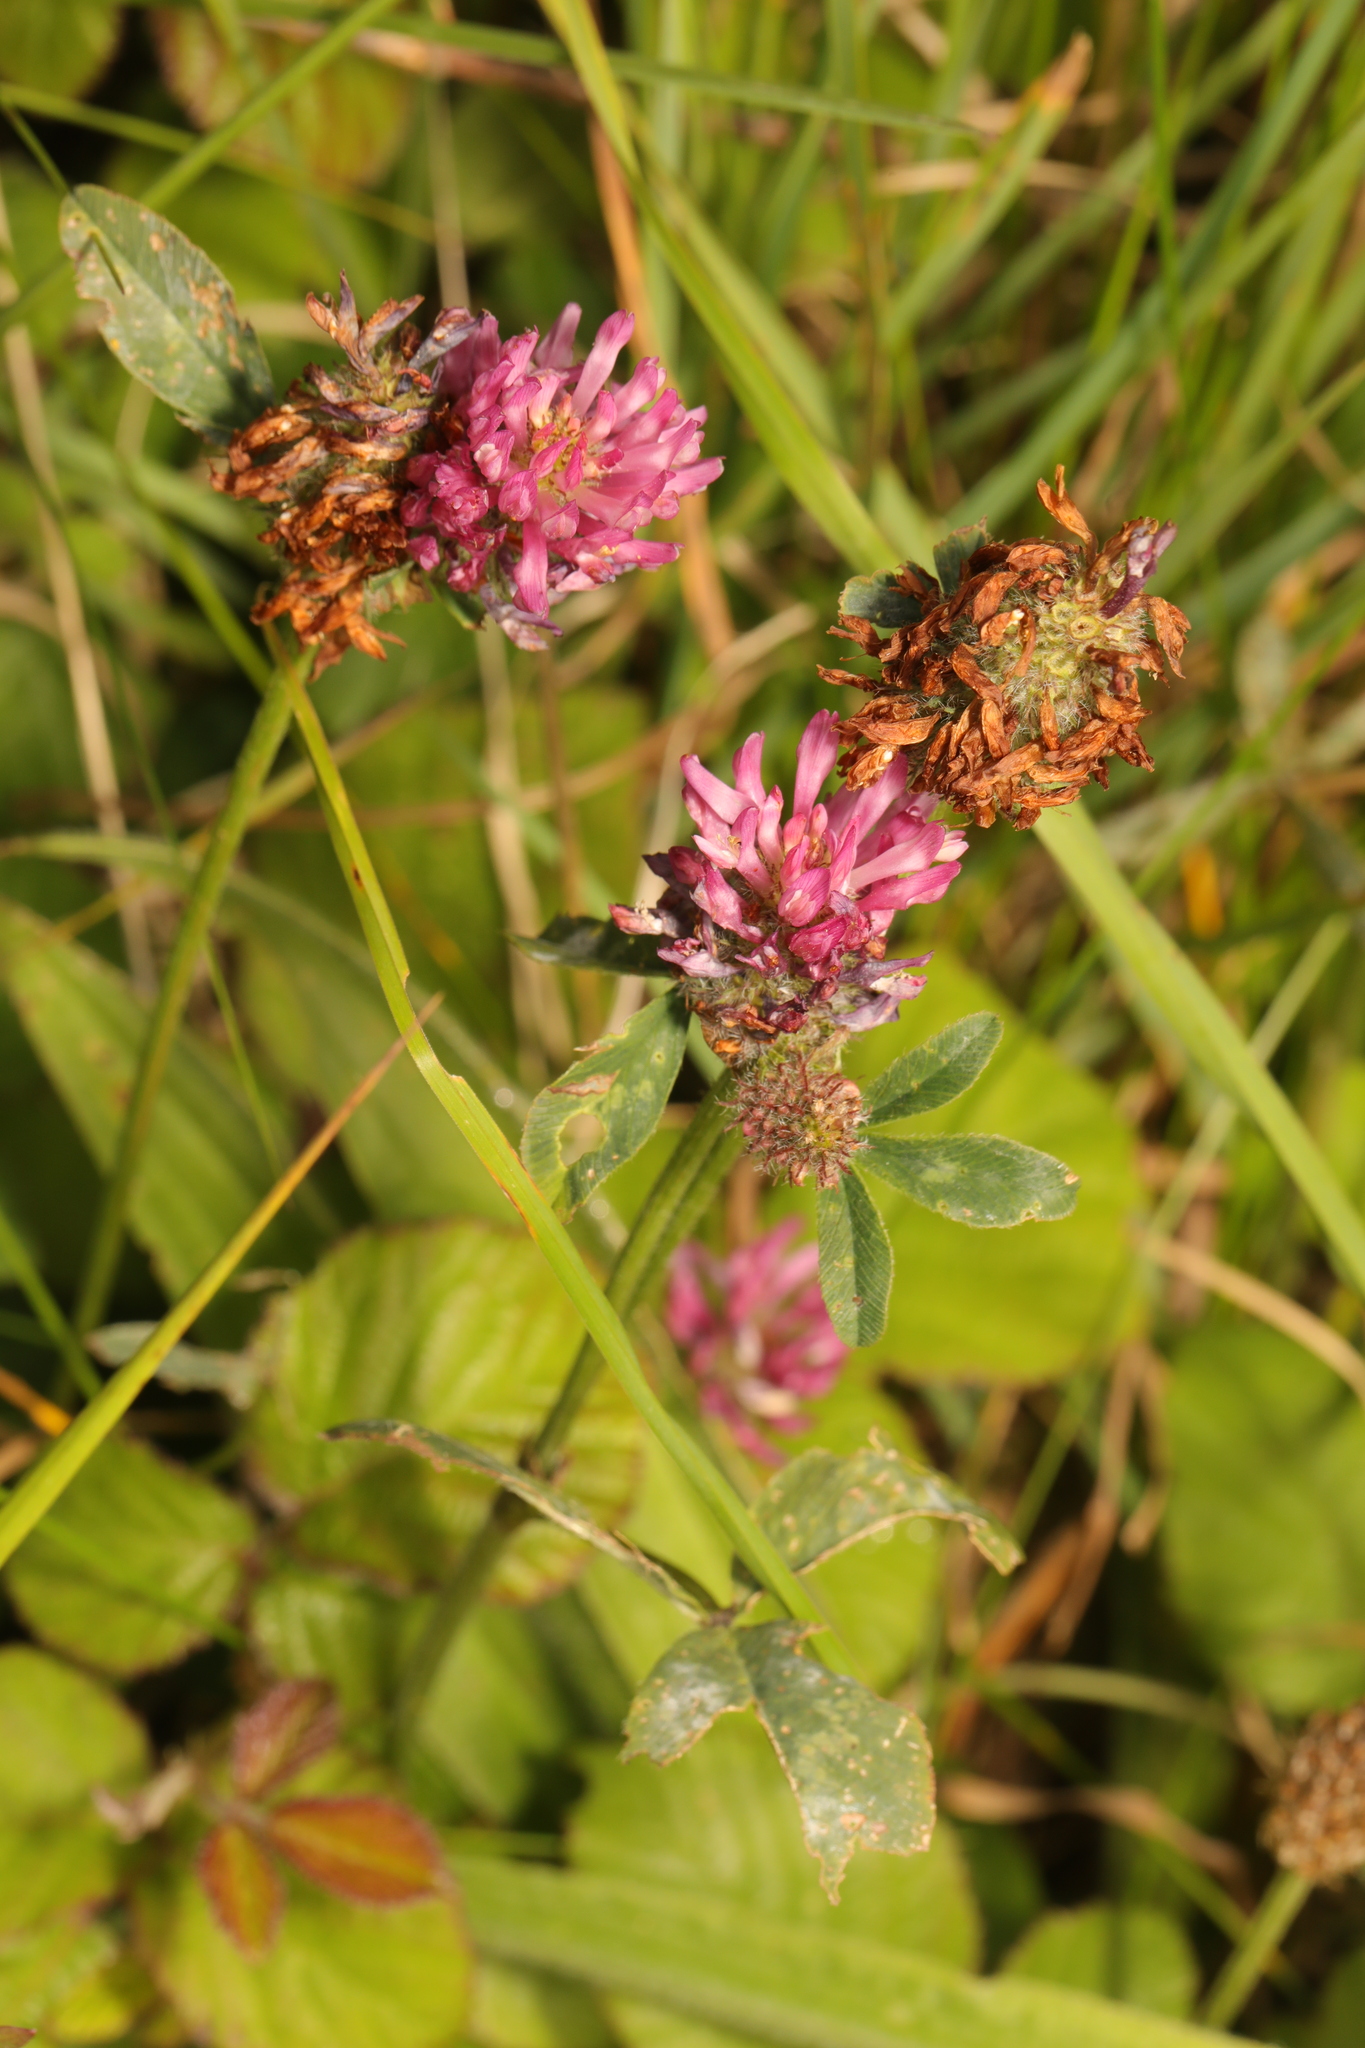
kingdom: Plantae
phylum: Tracheophyta
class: Magnoliopsida
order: Fabales
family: Fabaceae
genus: Trifolium
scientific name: Trifolium pratense
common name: Red clover
